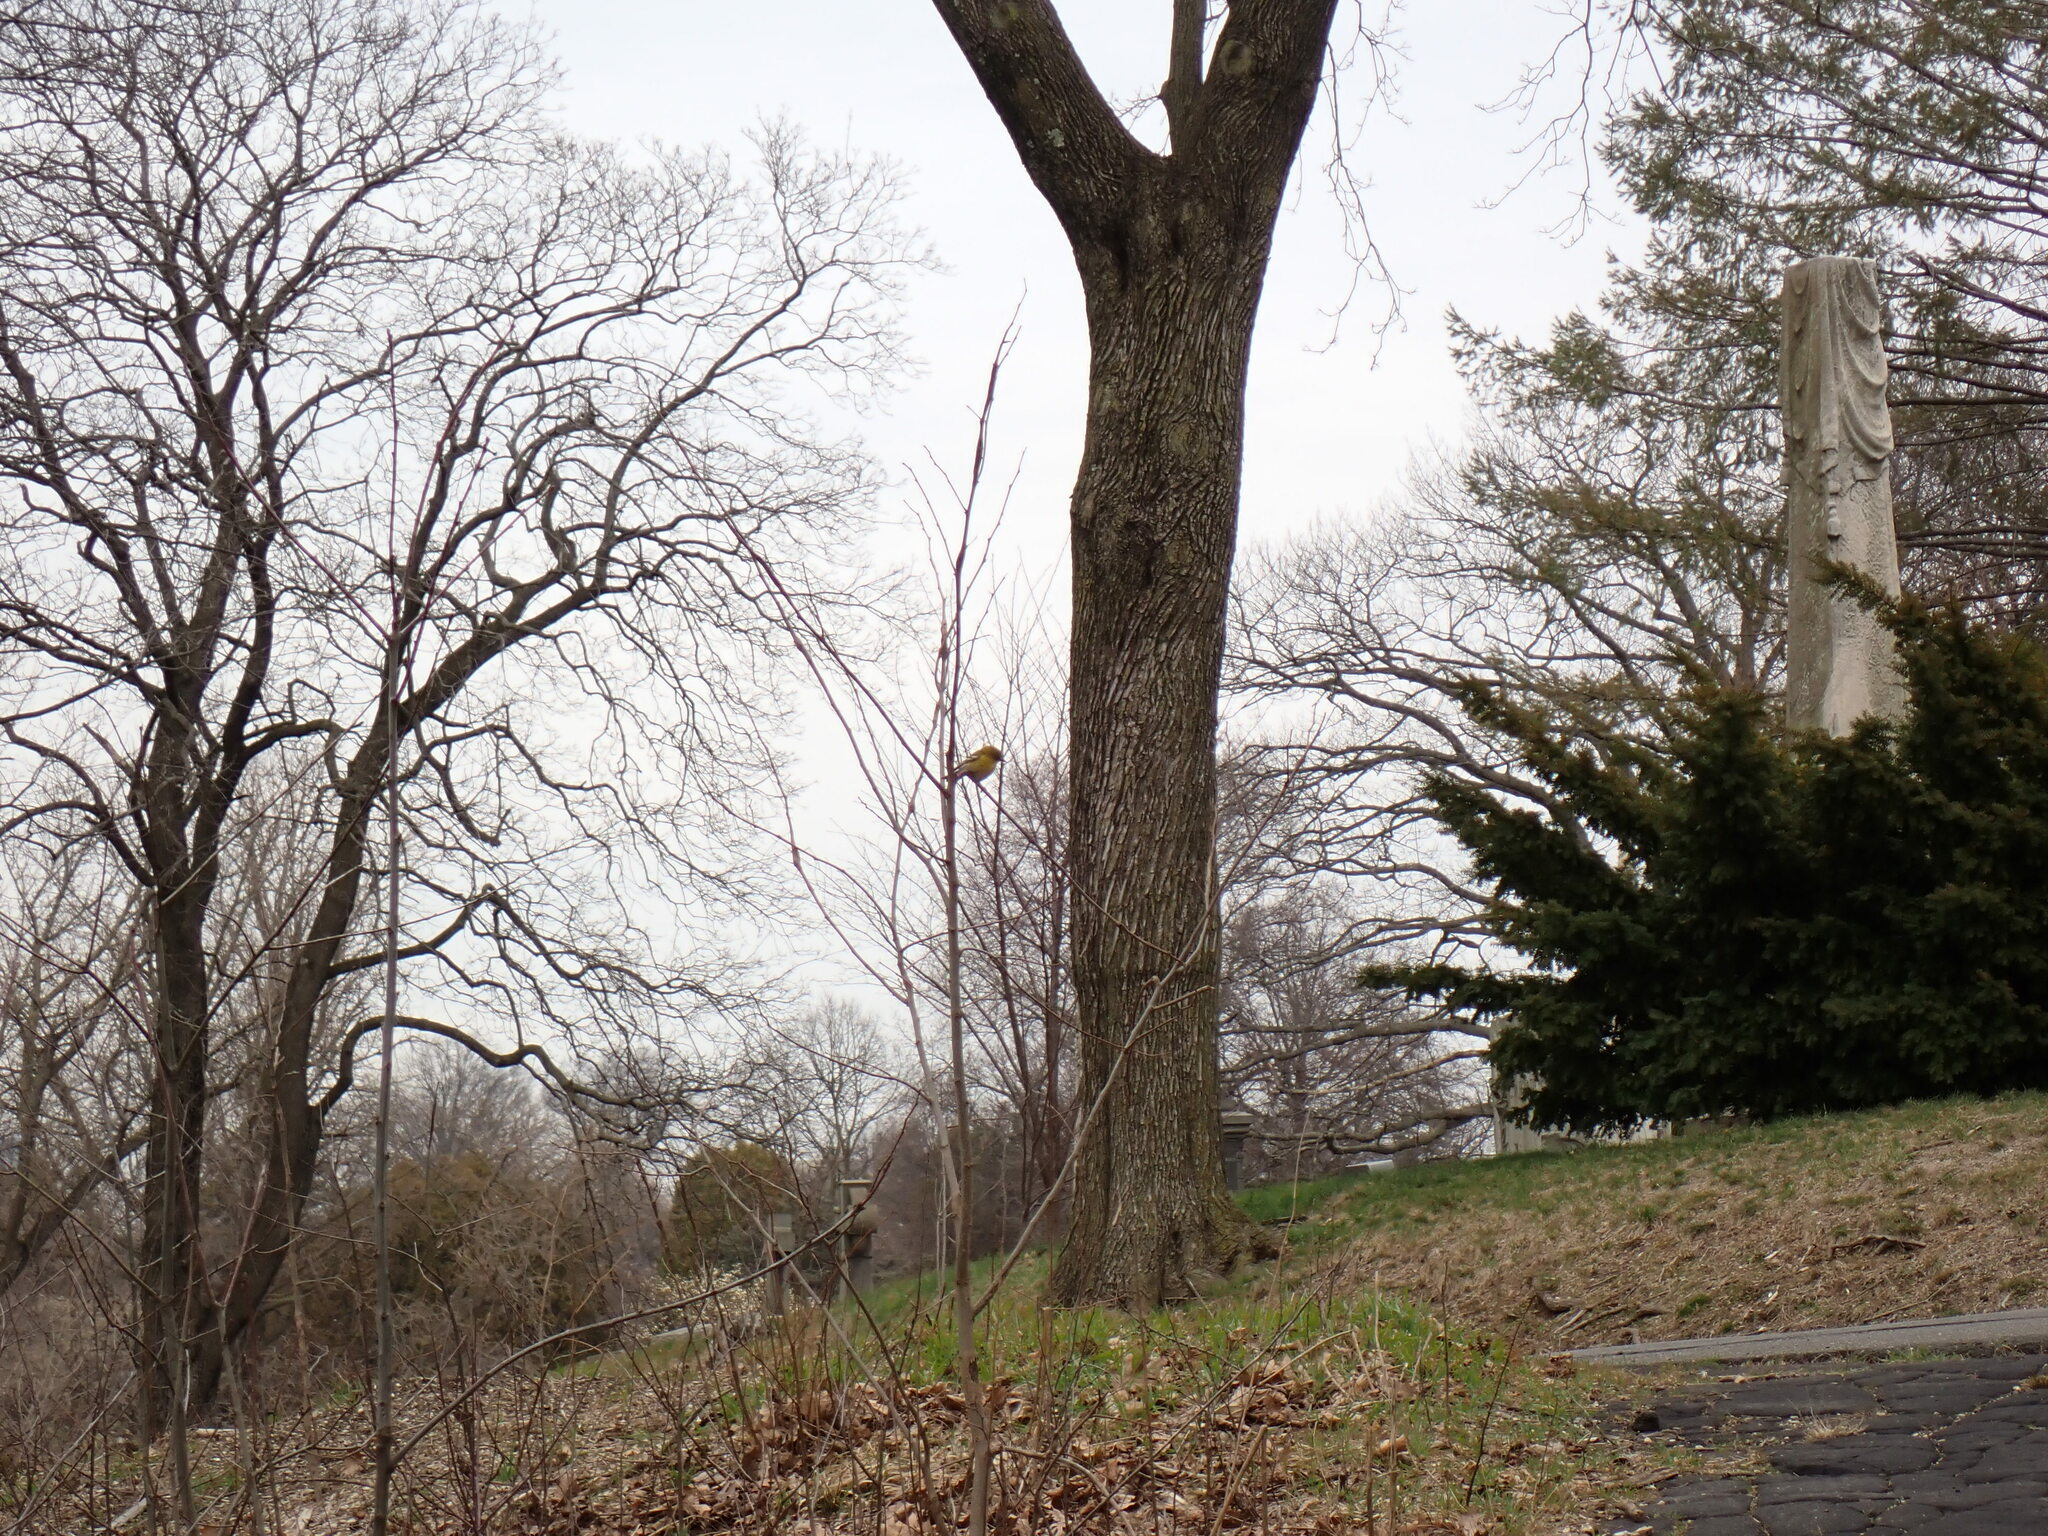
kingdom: Animalia
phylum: Chordata
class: Aves
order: Passeriformes
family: Parulidae
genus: Setophaga
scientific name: Setophaga pinus
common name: Pine warbler
